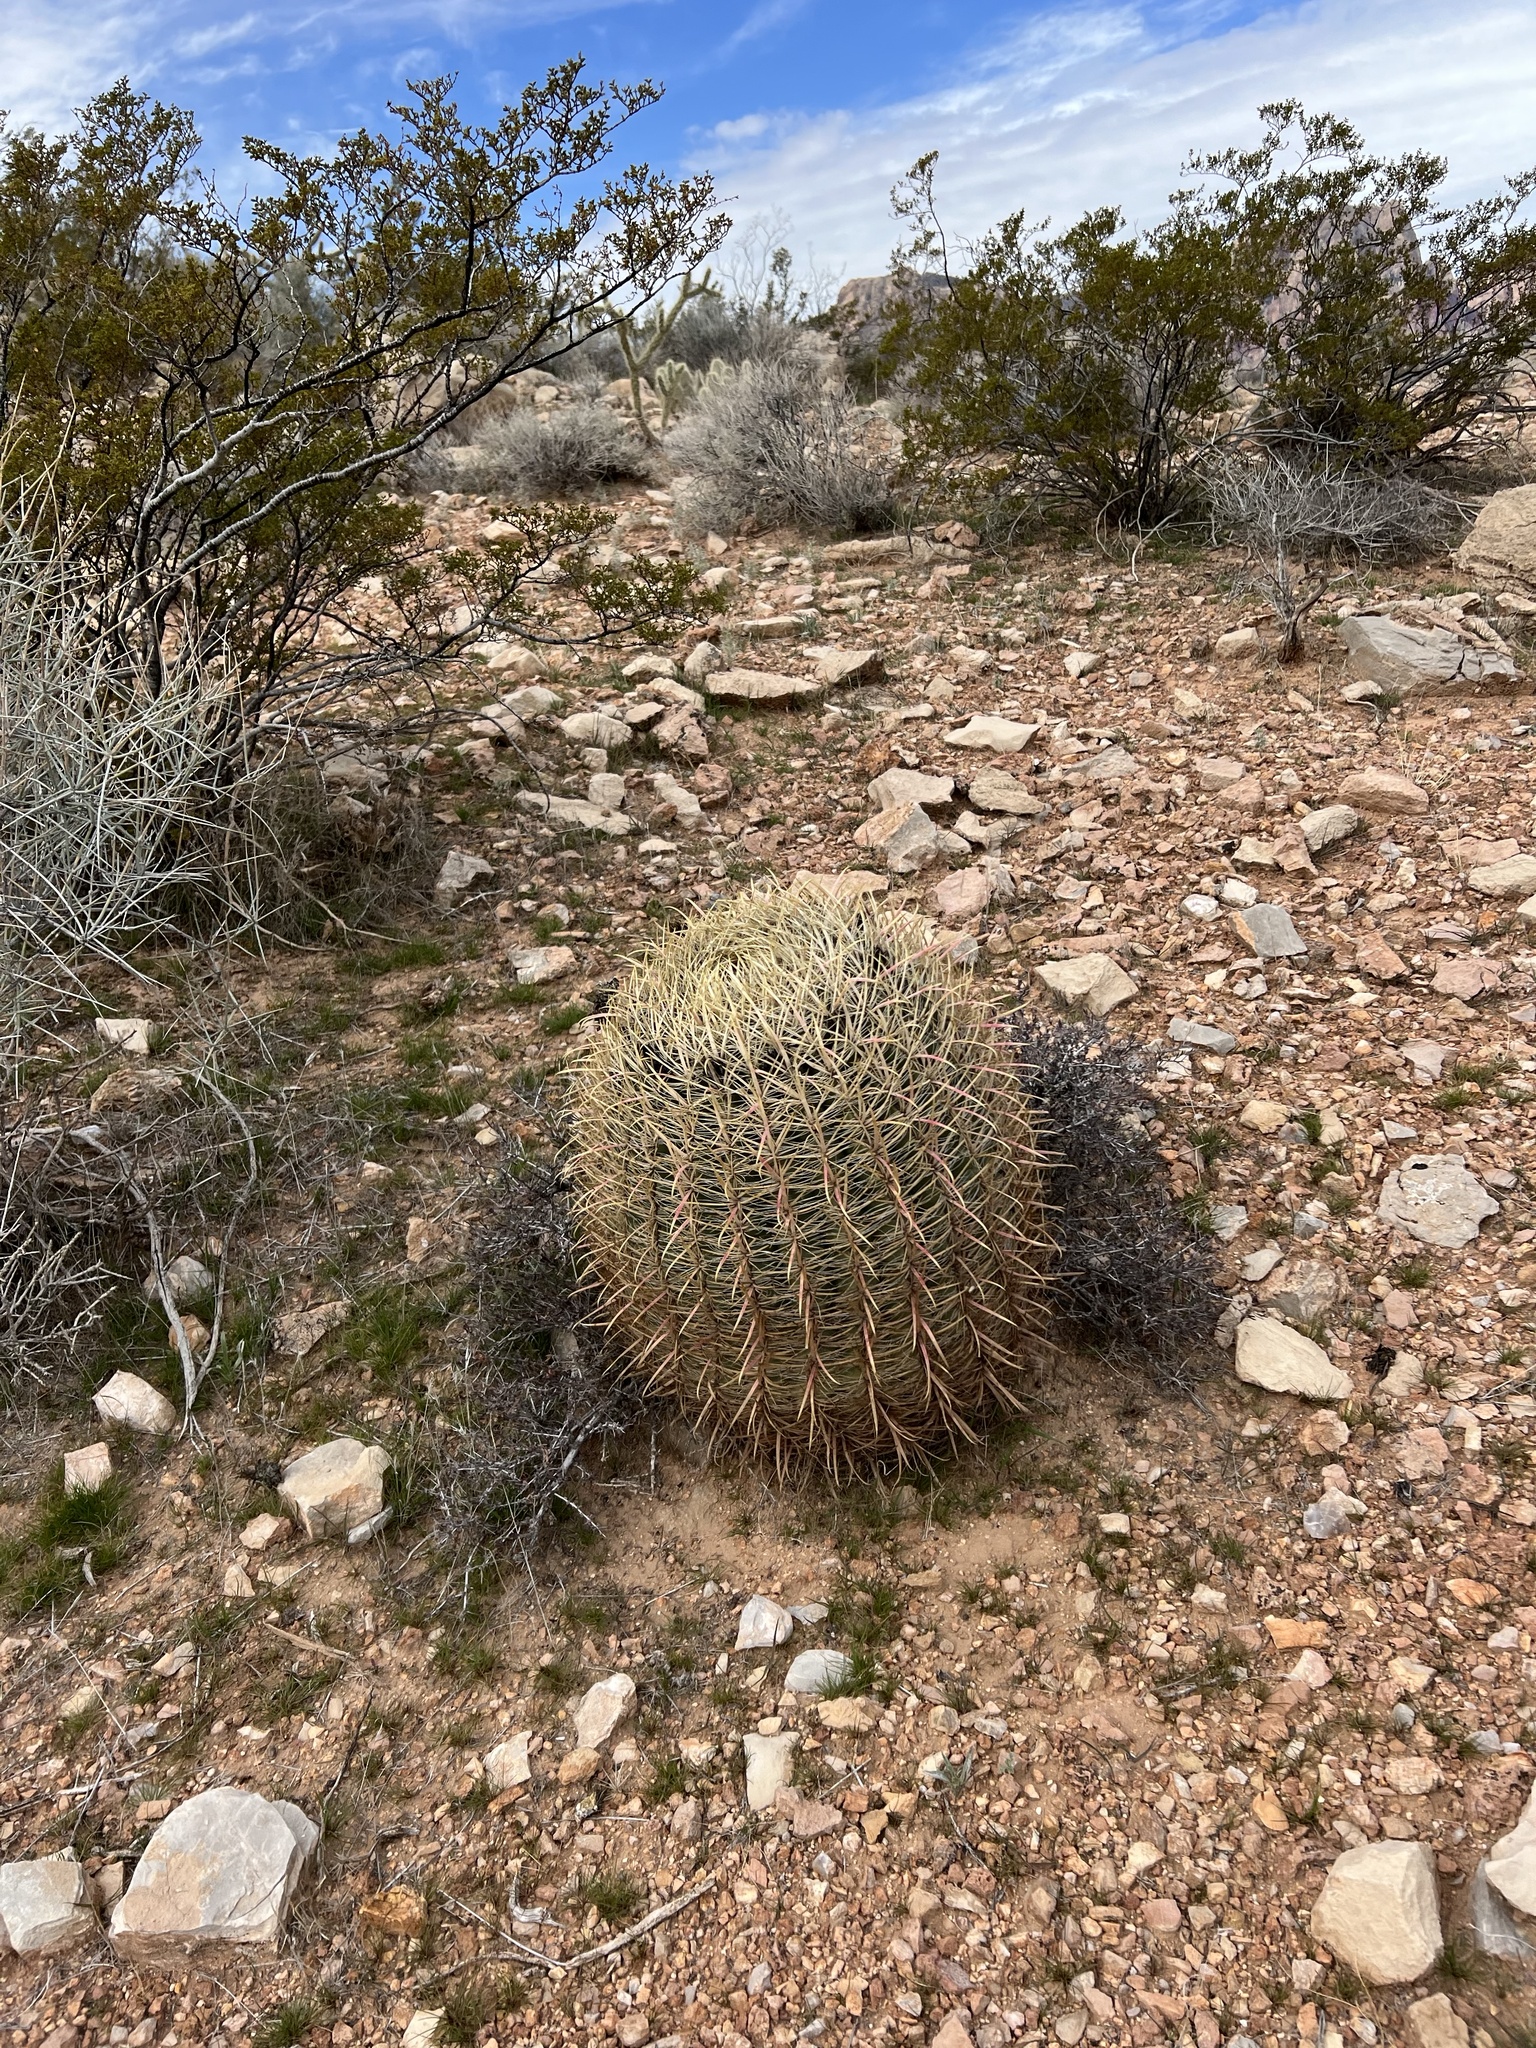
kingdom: Plantae
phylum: Tracheophyta
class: Magnoliopsida
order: Caryophyllales
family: Cactaceae
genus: Ferocactus
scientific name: Ferocactus cylindraceus
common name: California barrel cactus
